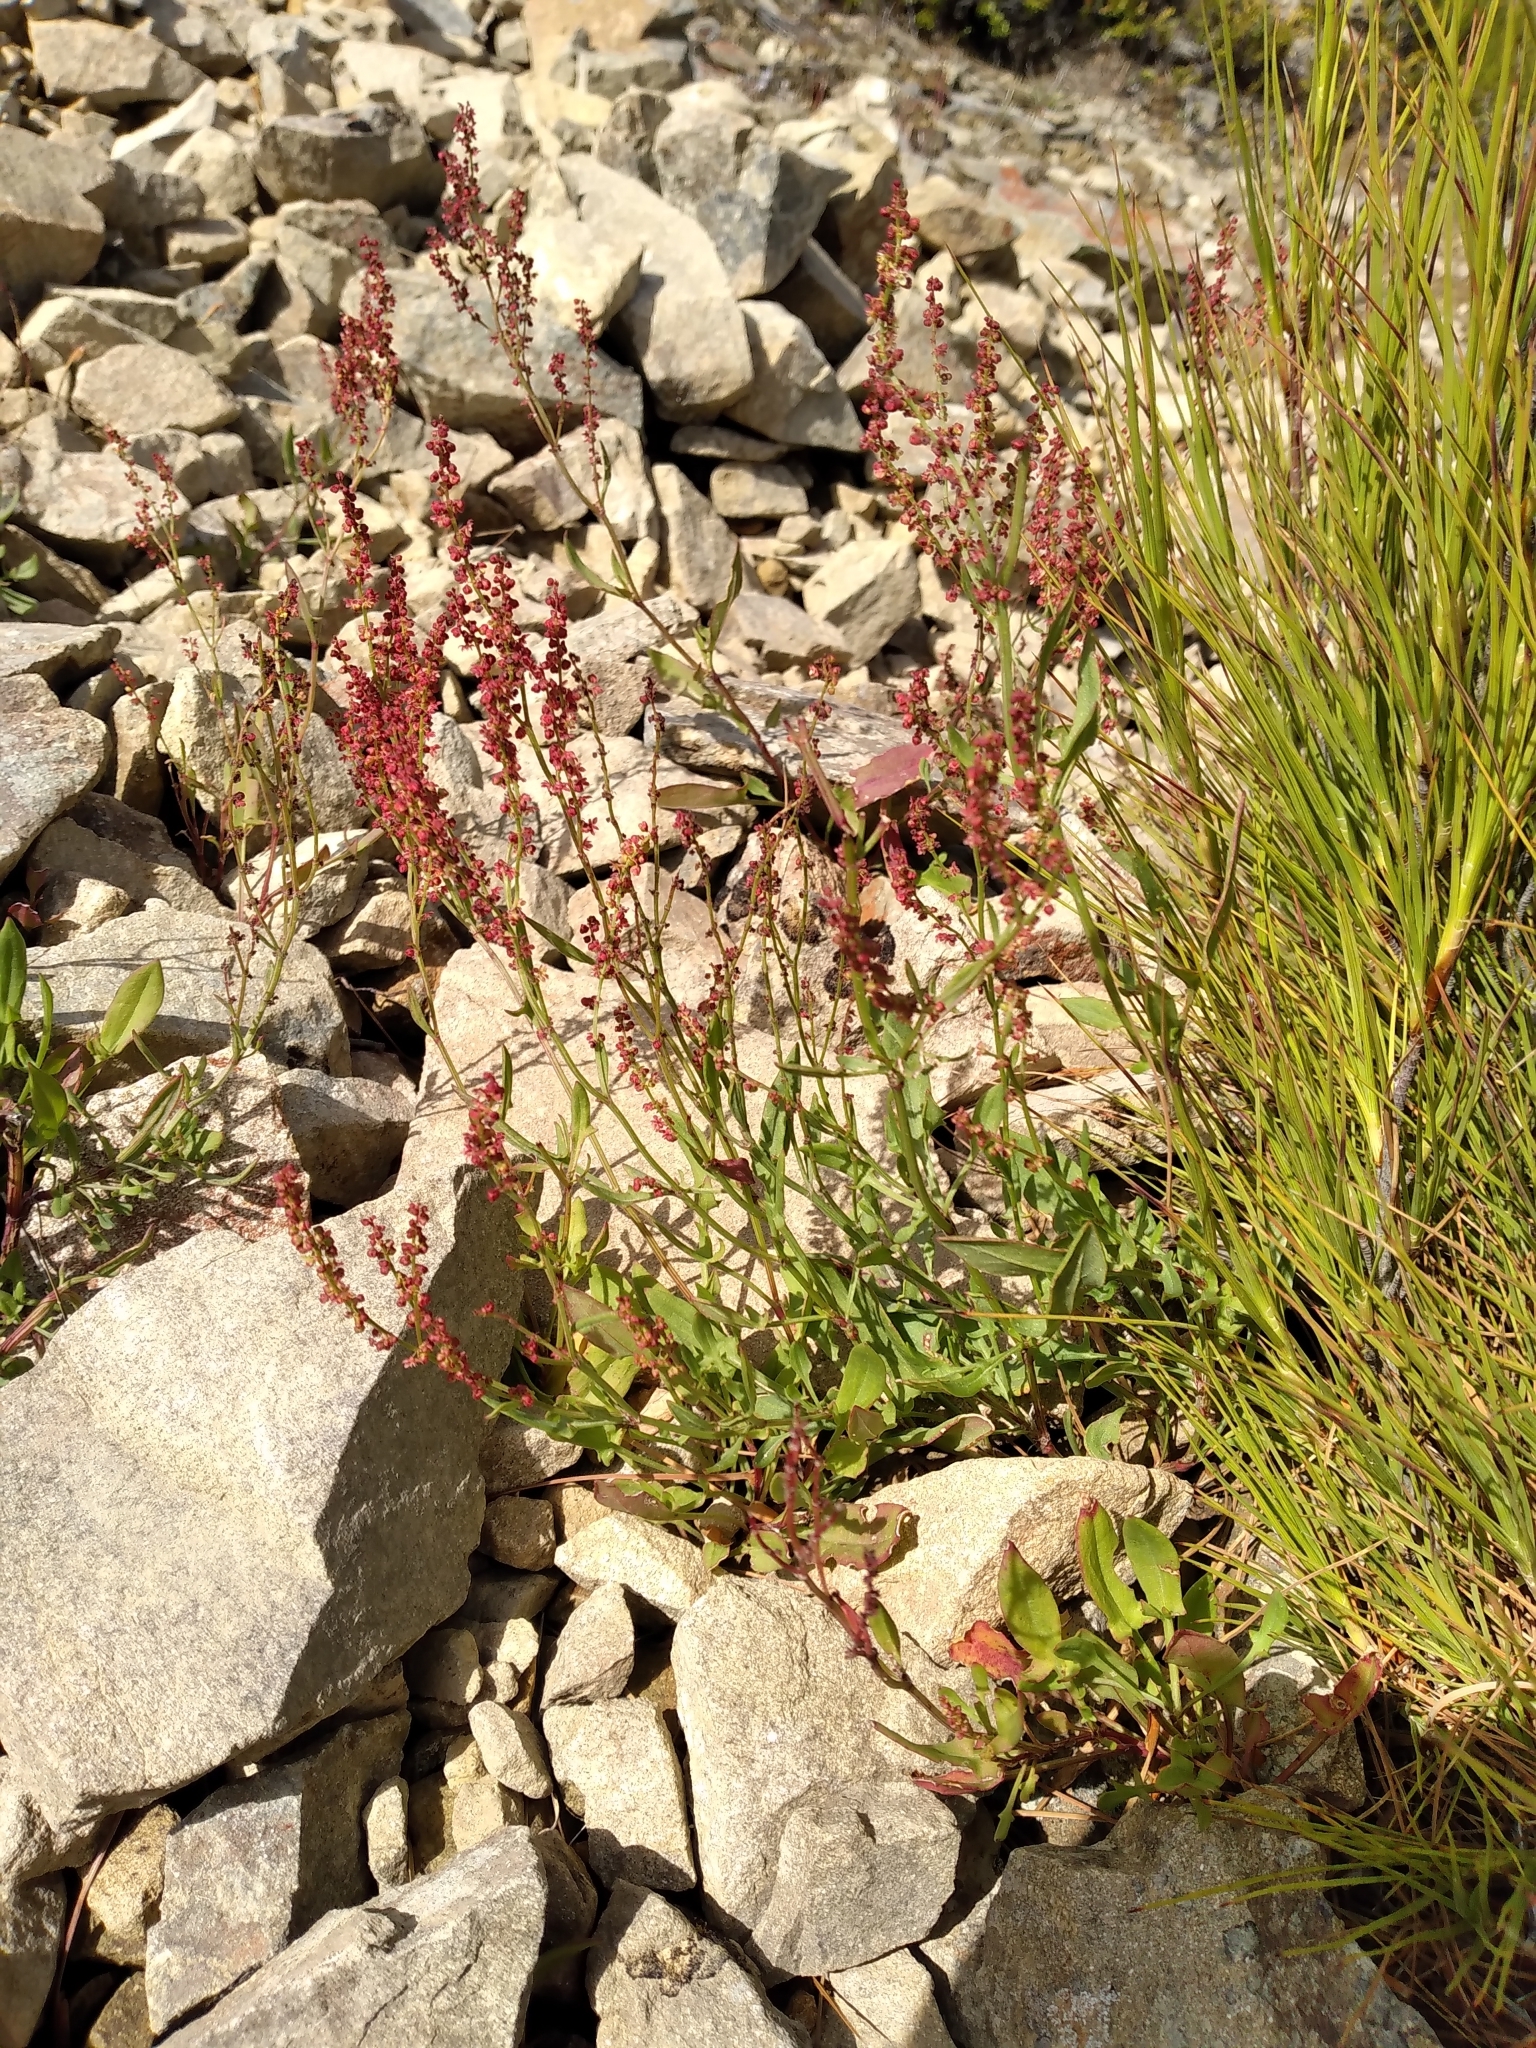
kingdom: Plantae
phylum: Tracheophyta
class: Magnoliopsida
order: Caryophyllales
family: Polygonaceae
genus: Rumex
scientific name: Rumex acetosella
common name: Common sheep sorrel
